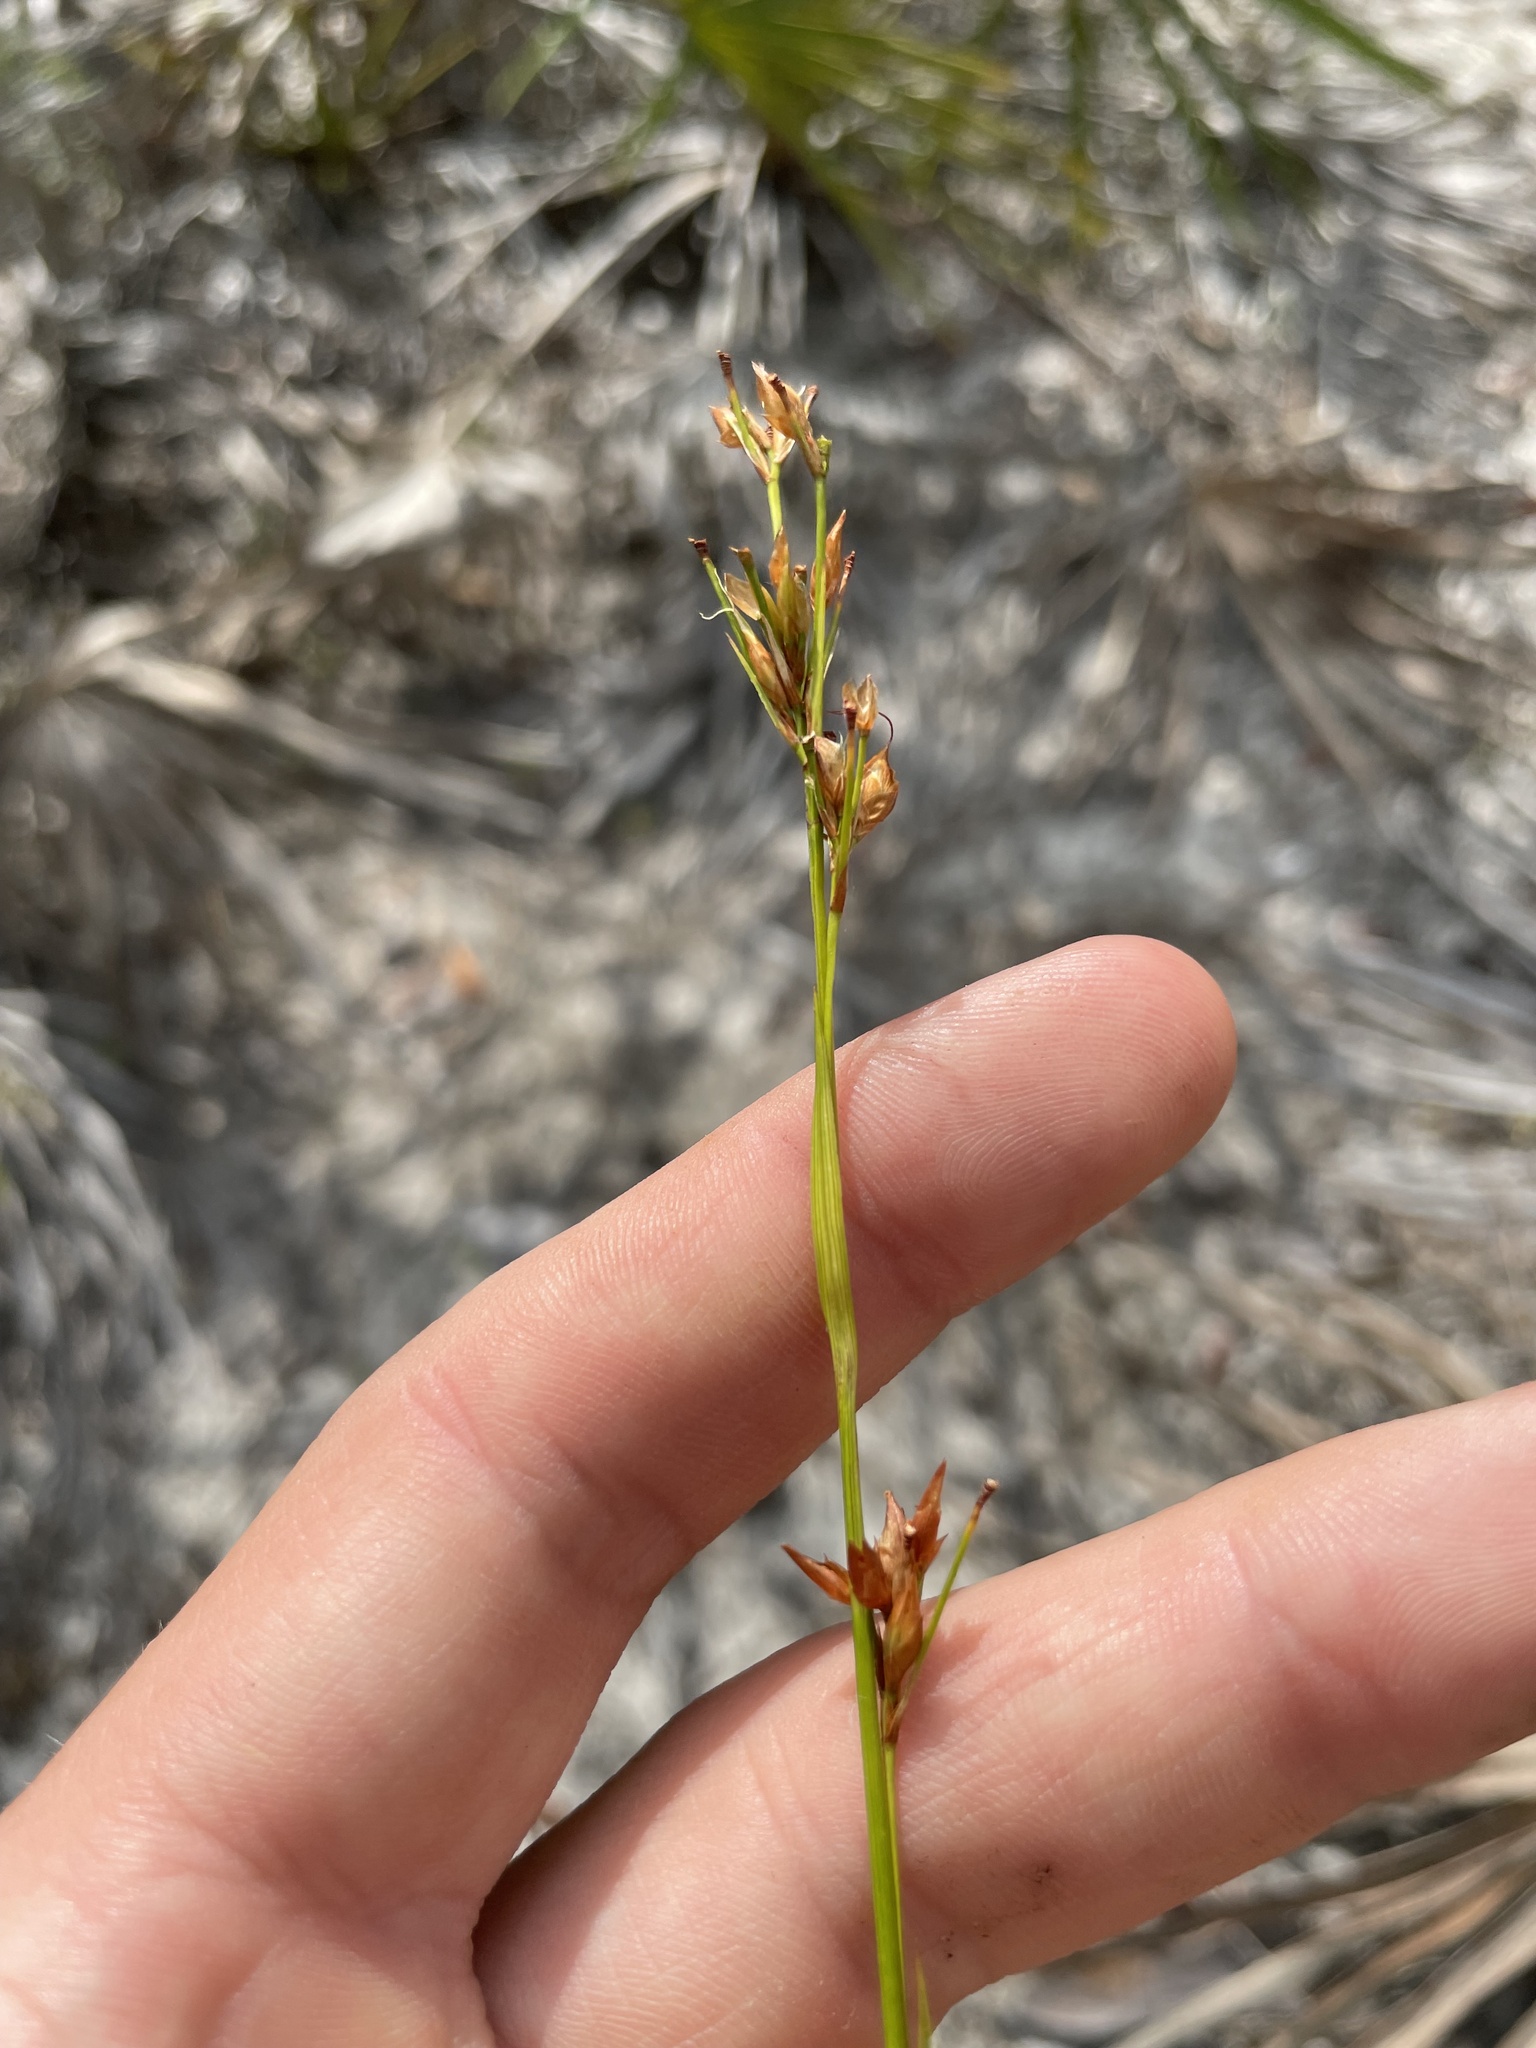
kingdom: Plantae
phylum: Tracheophyta
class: Liliopsida
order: Poales
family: Cyperaceae
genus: Rhynchospora
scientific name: Rhynchospora megalocarpa
